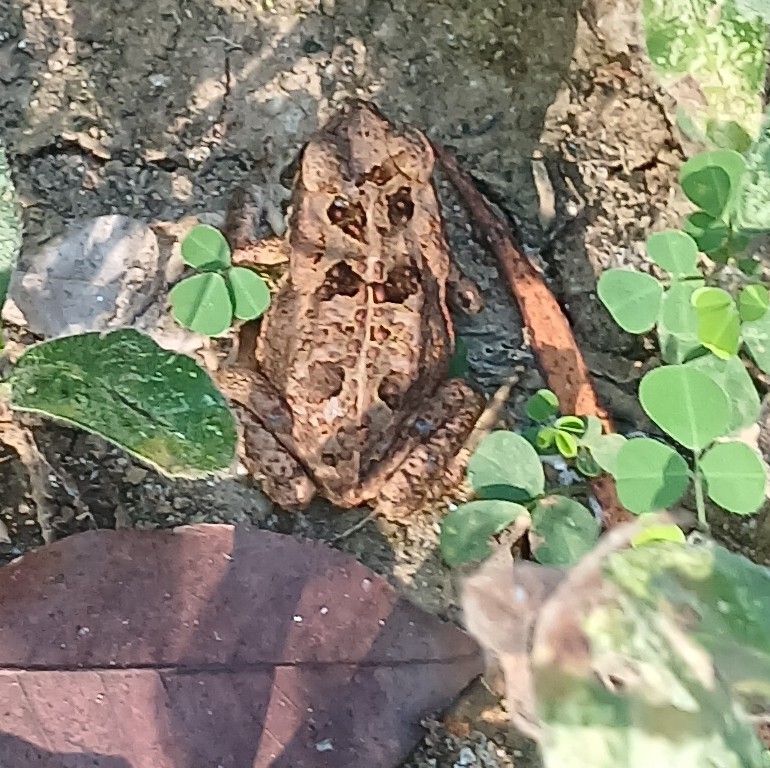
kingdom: Animalia
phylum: Chordata
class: Amphibia
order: Anura
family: Bufonidae
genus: Rhinella
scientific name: Rhinella horribilis
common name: Mesoamerican cane toad
